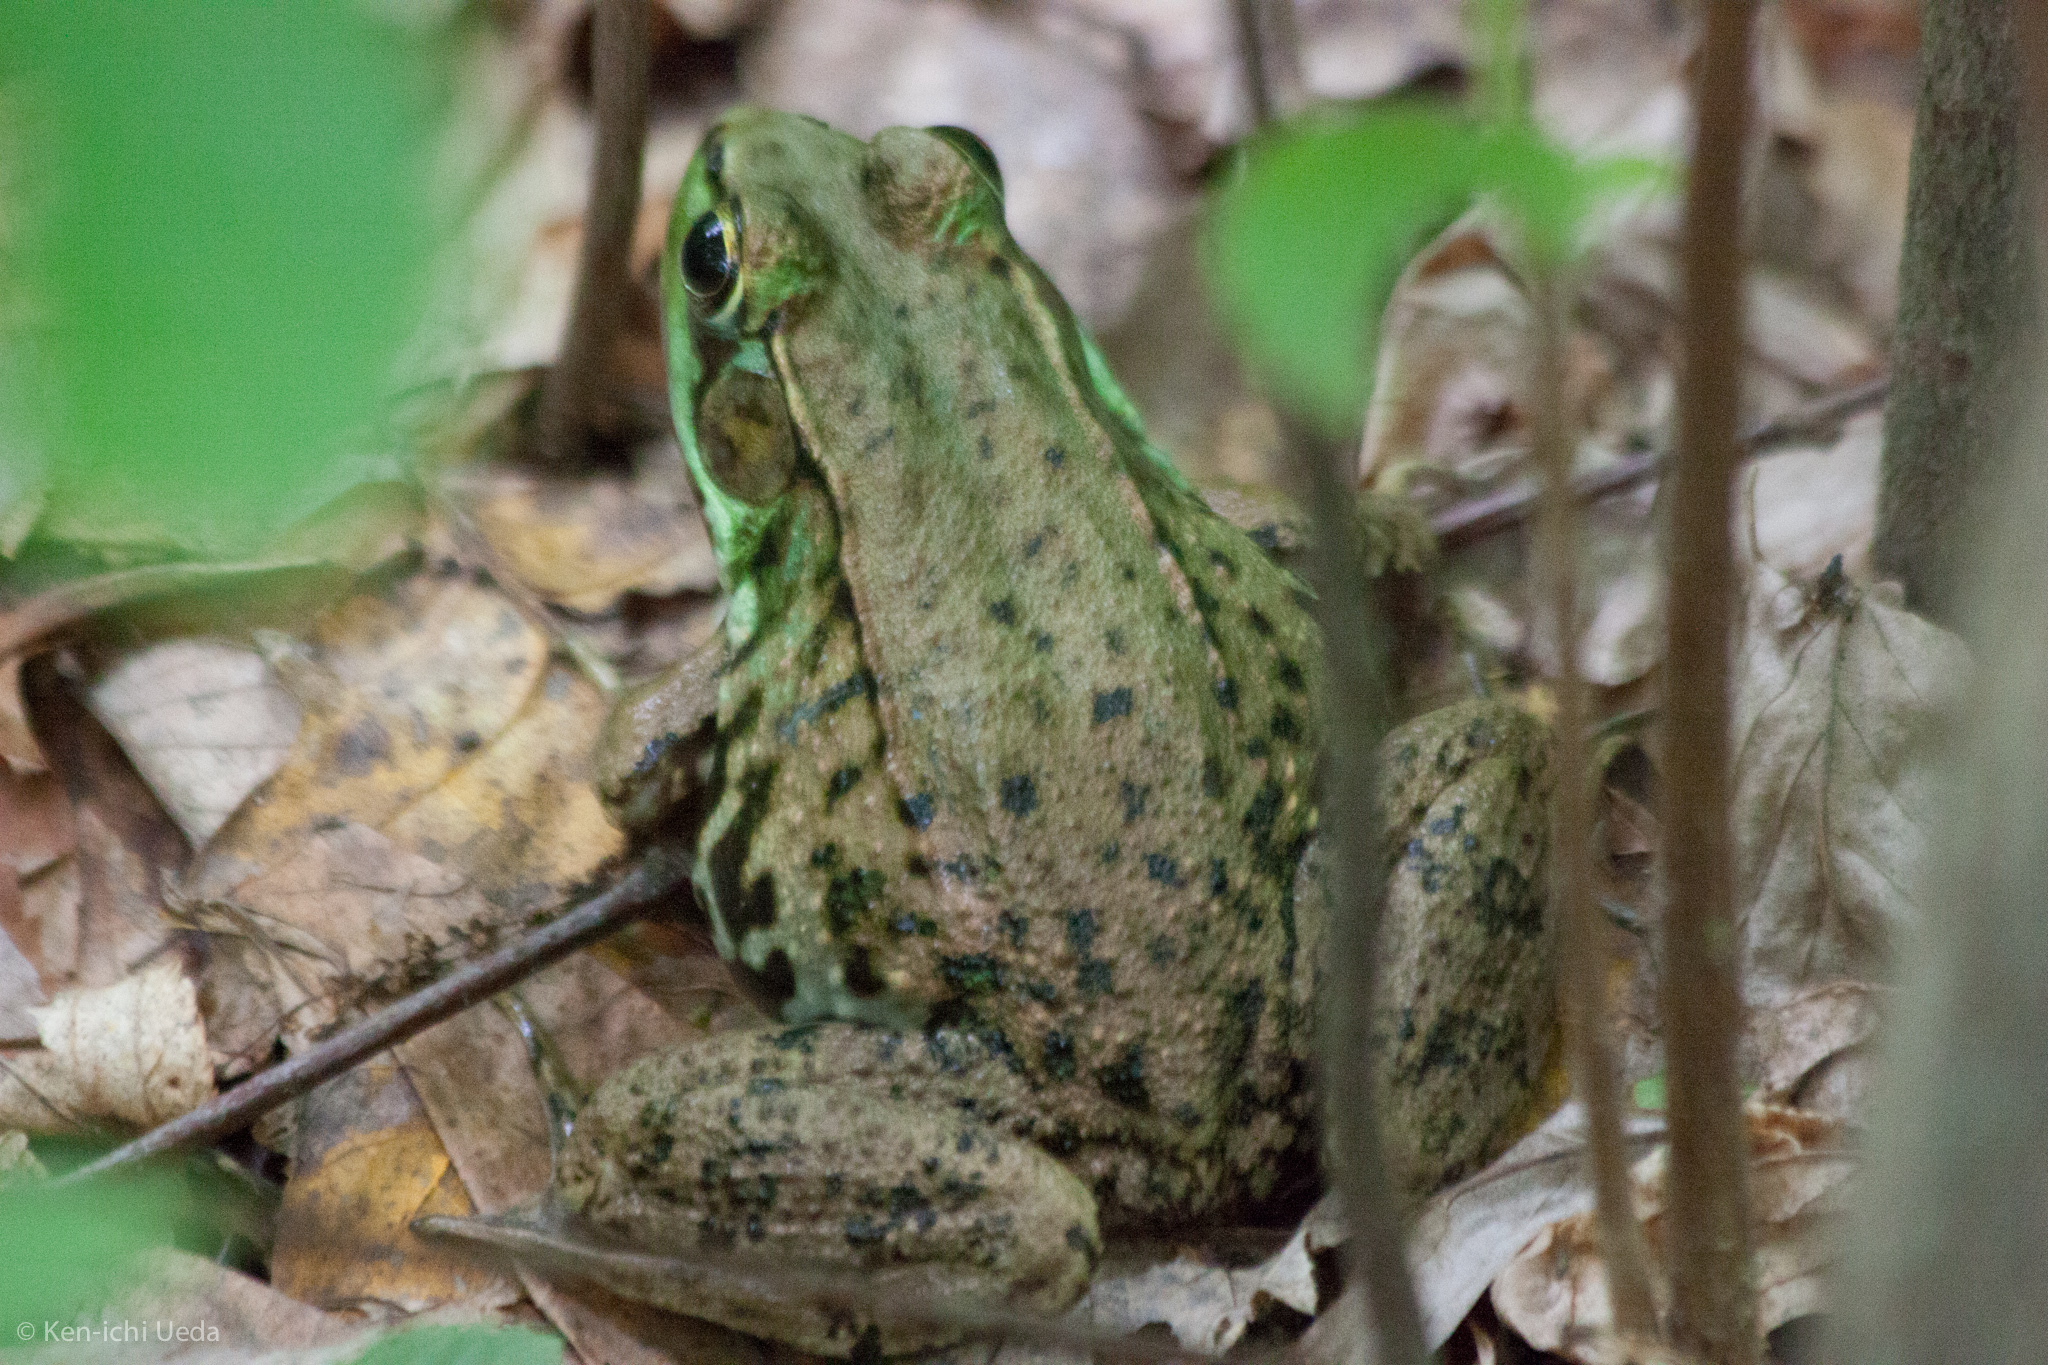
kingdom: Animalia
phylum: Chordata
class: Amphibia
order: Anura
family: Ranidae
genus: Lithobates
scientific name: Lithobates clamitans
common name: Green frog
